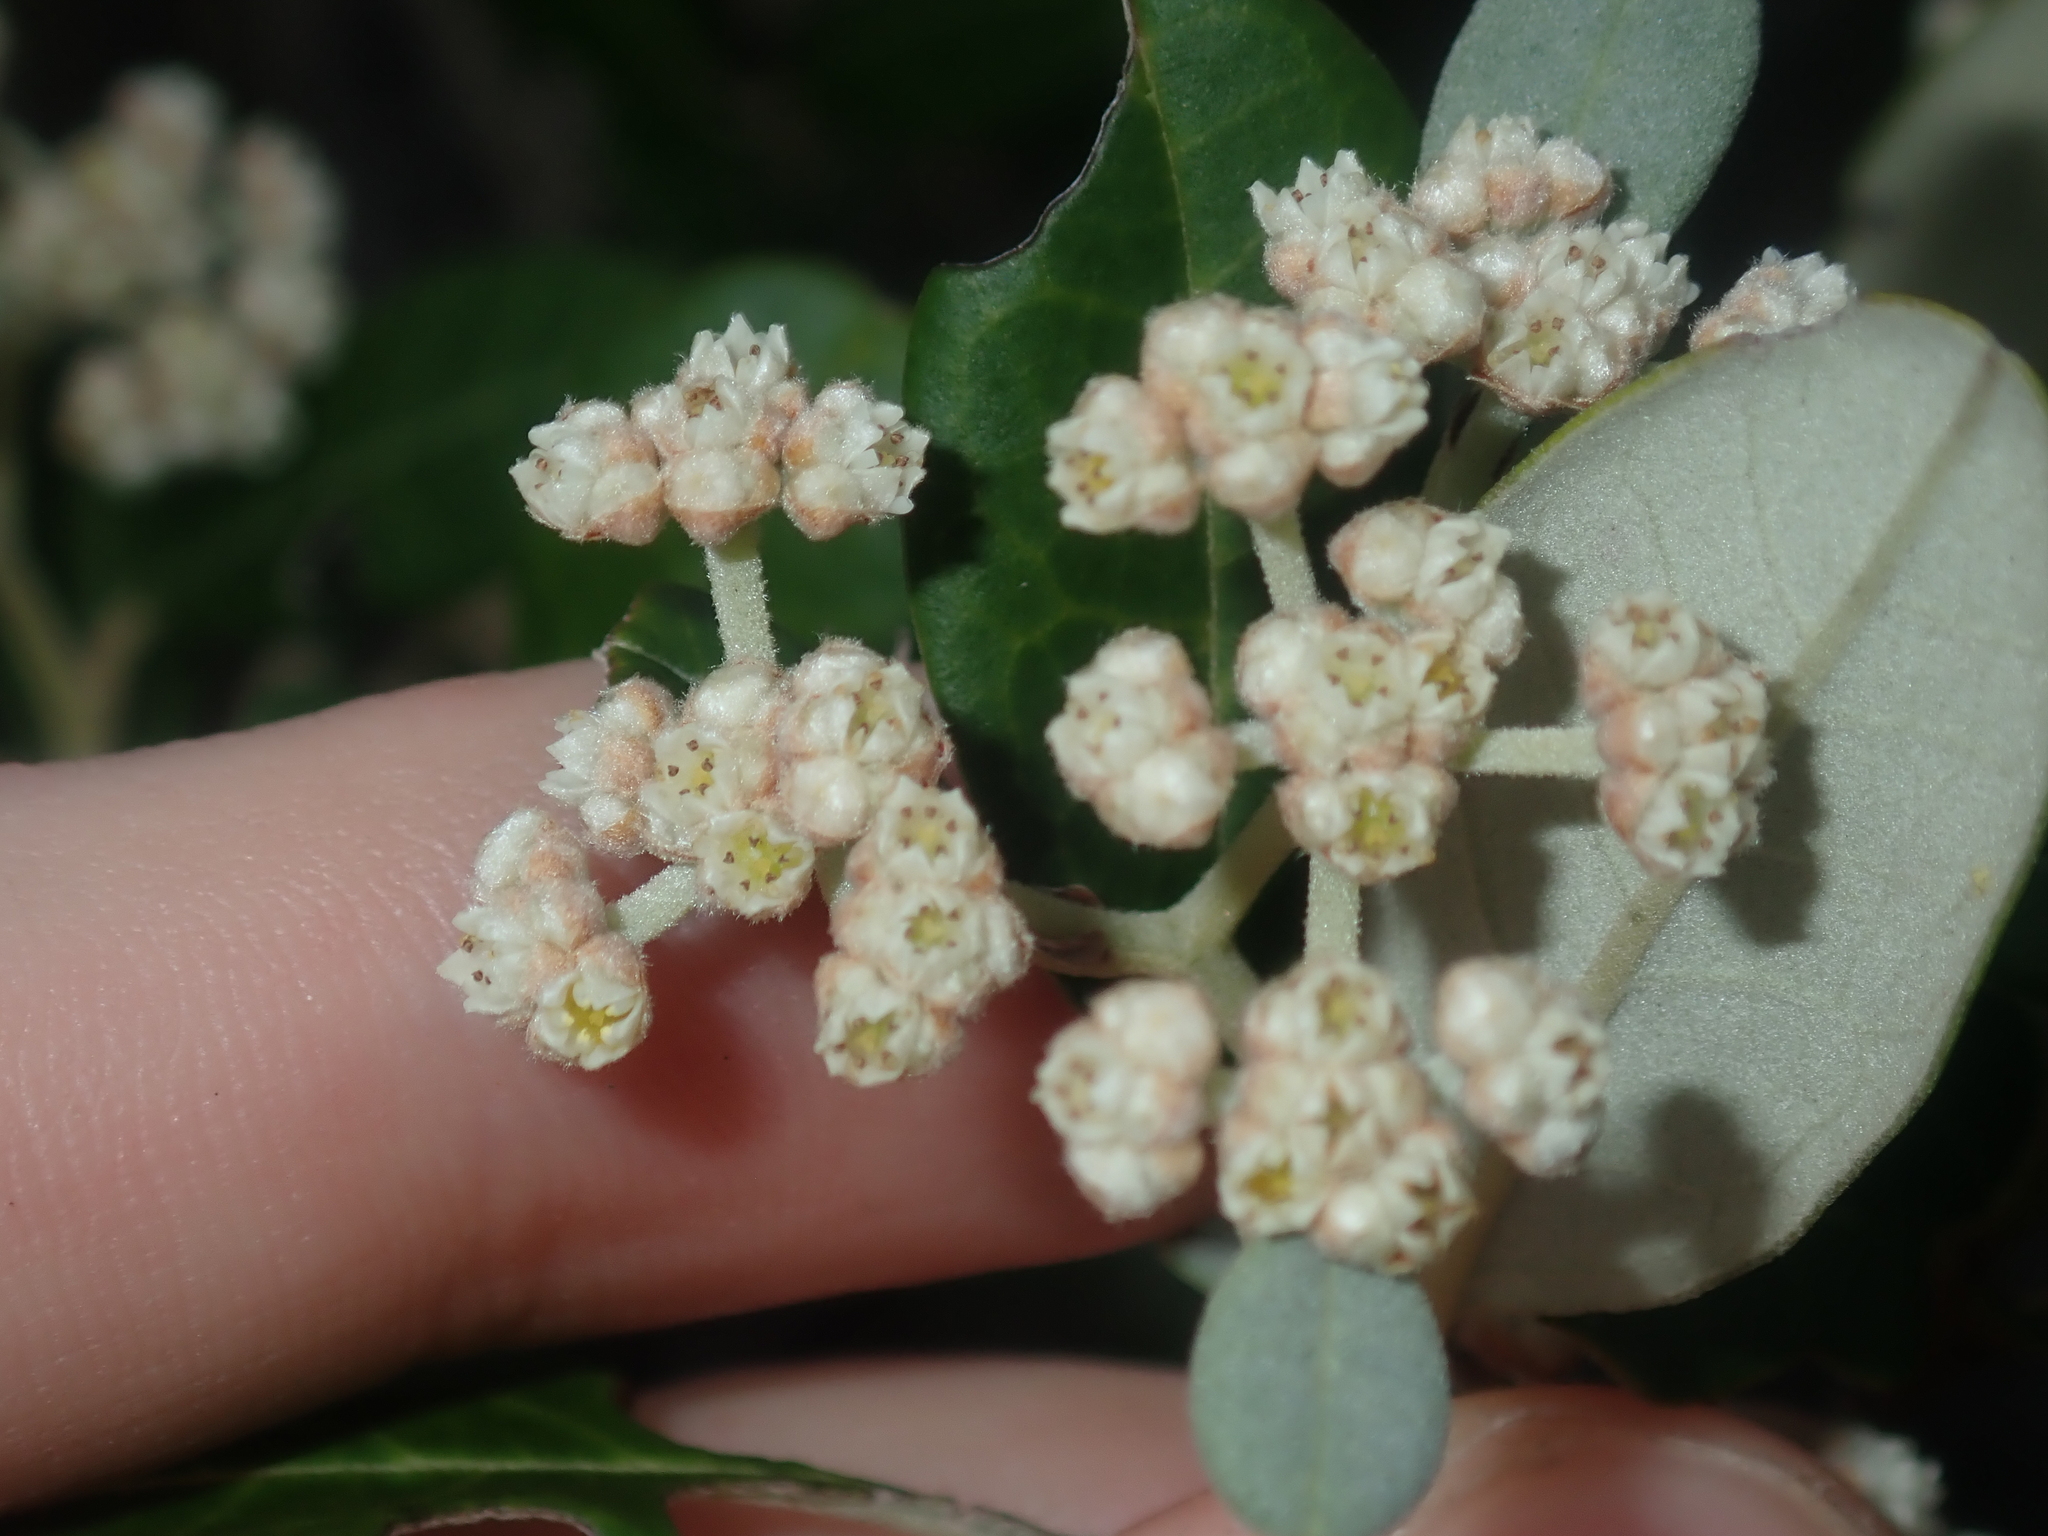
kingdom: Plantae
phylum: Tracheophyta
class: Magnoliopsida
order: Rosales
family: Rhamnaceae
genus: Spyridium
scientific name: Spyridium globulosum
